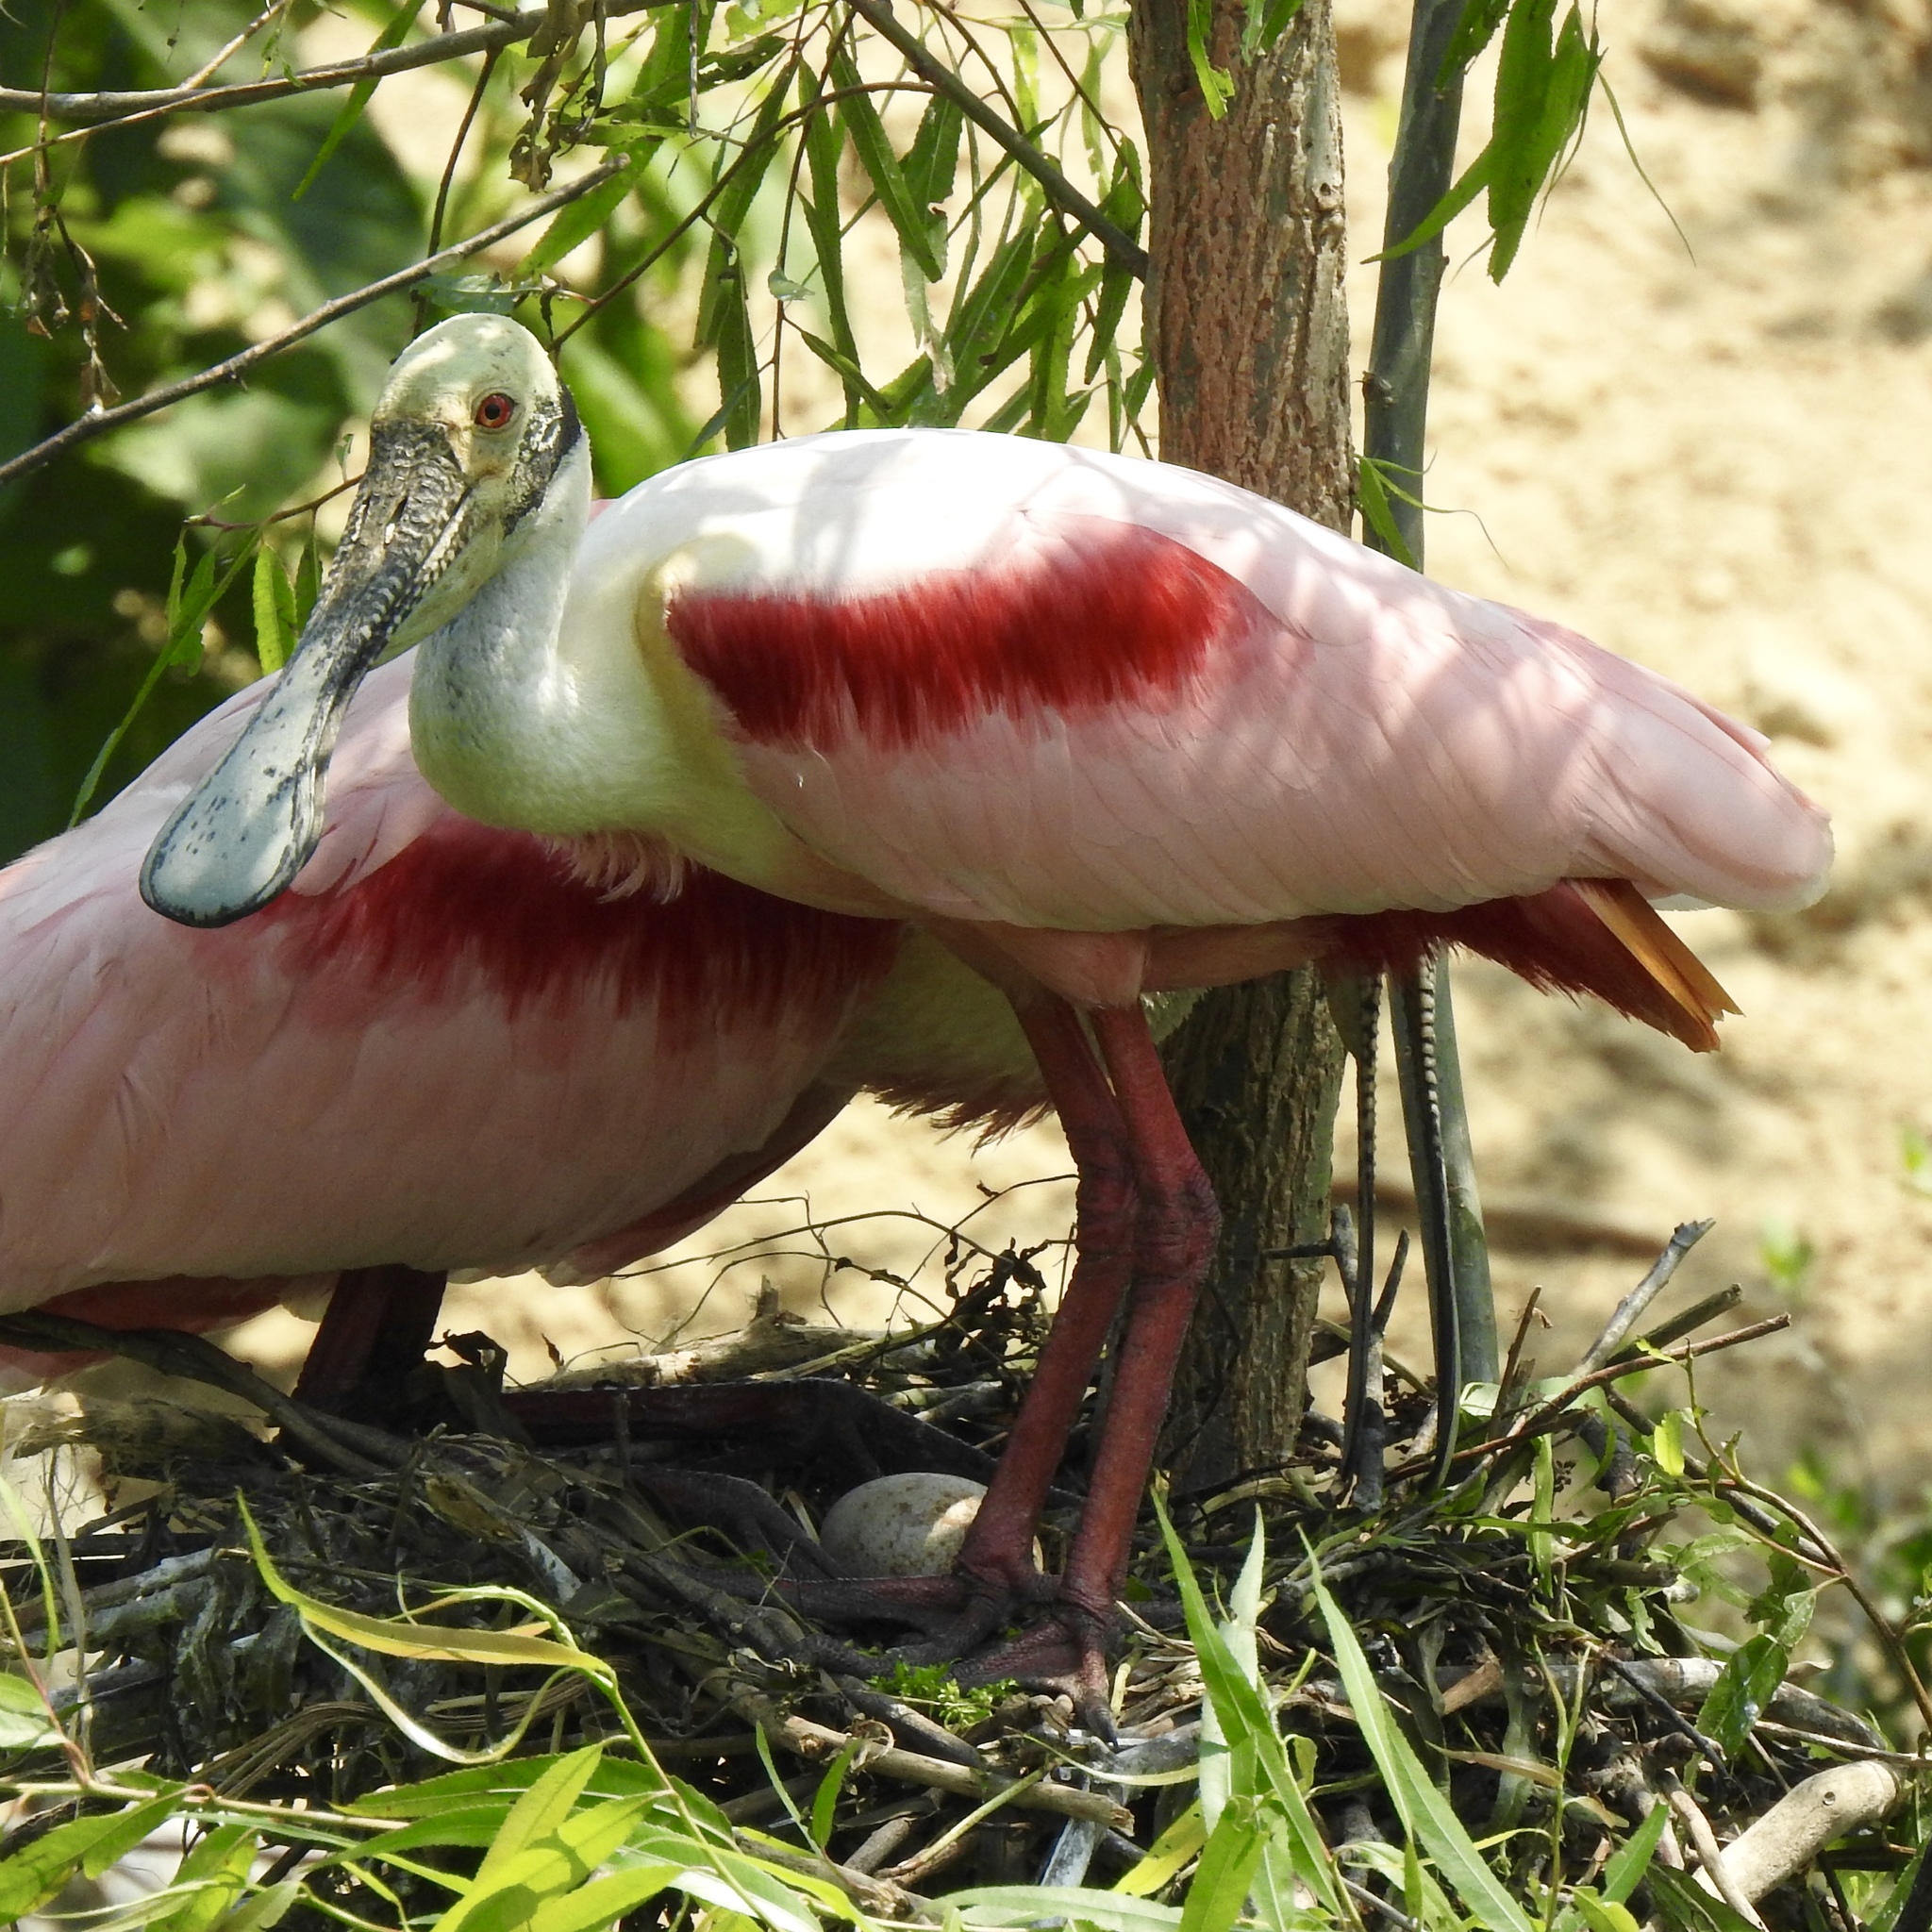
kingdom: Animalia
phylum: Chordata
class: Aves
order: Pelecaniformes
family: Threskiornithidae
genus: Platalea
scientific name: Platalea ajaja
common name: Roseate spoonbill
